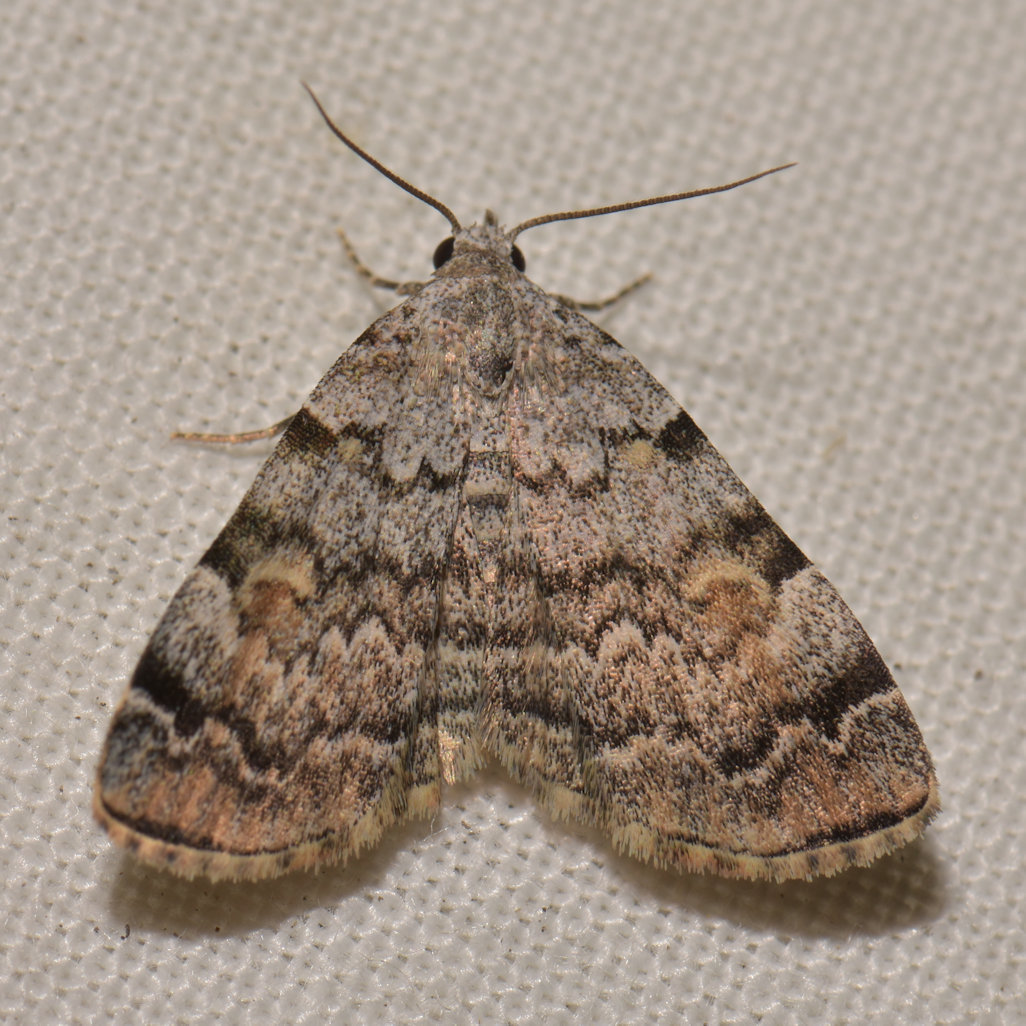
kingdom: Animalia
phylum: Arthropoda
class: Insecta
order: Lepidoptera
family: Erebidae
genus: Idia
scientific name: Idia americalis
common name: American idia moth
